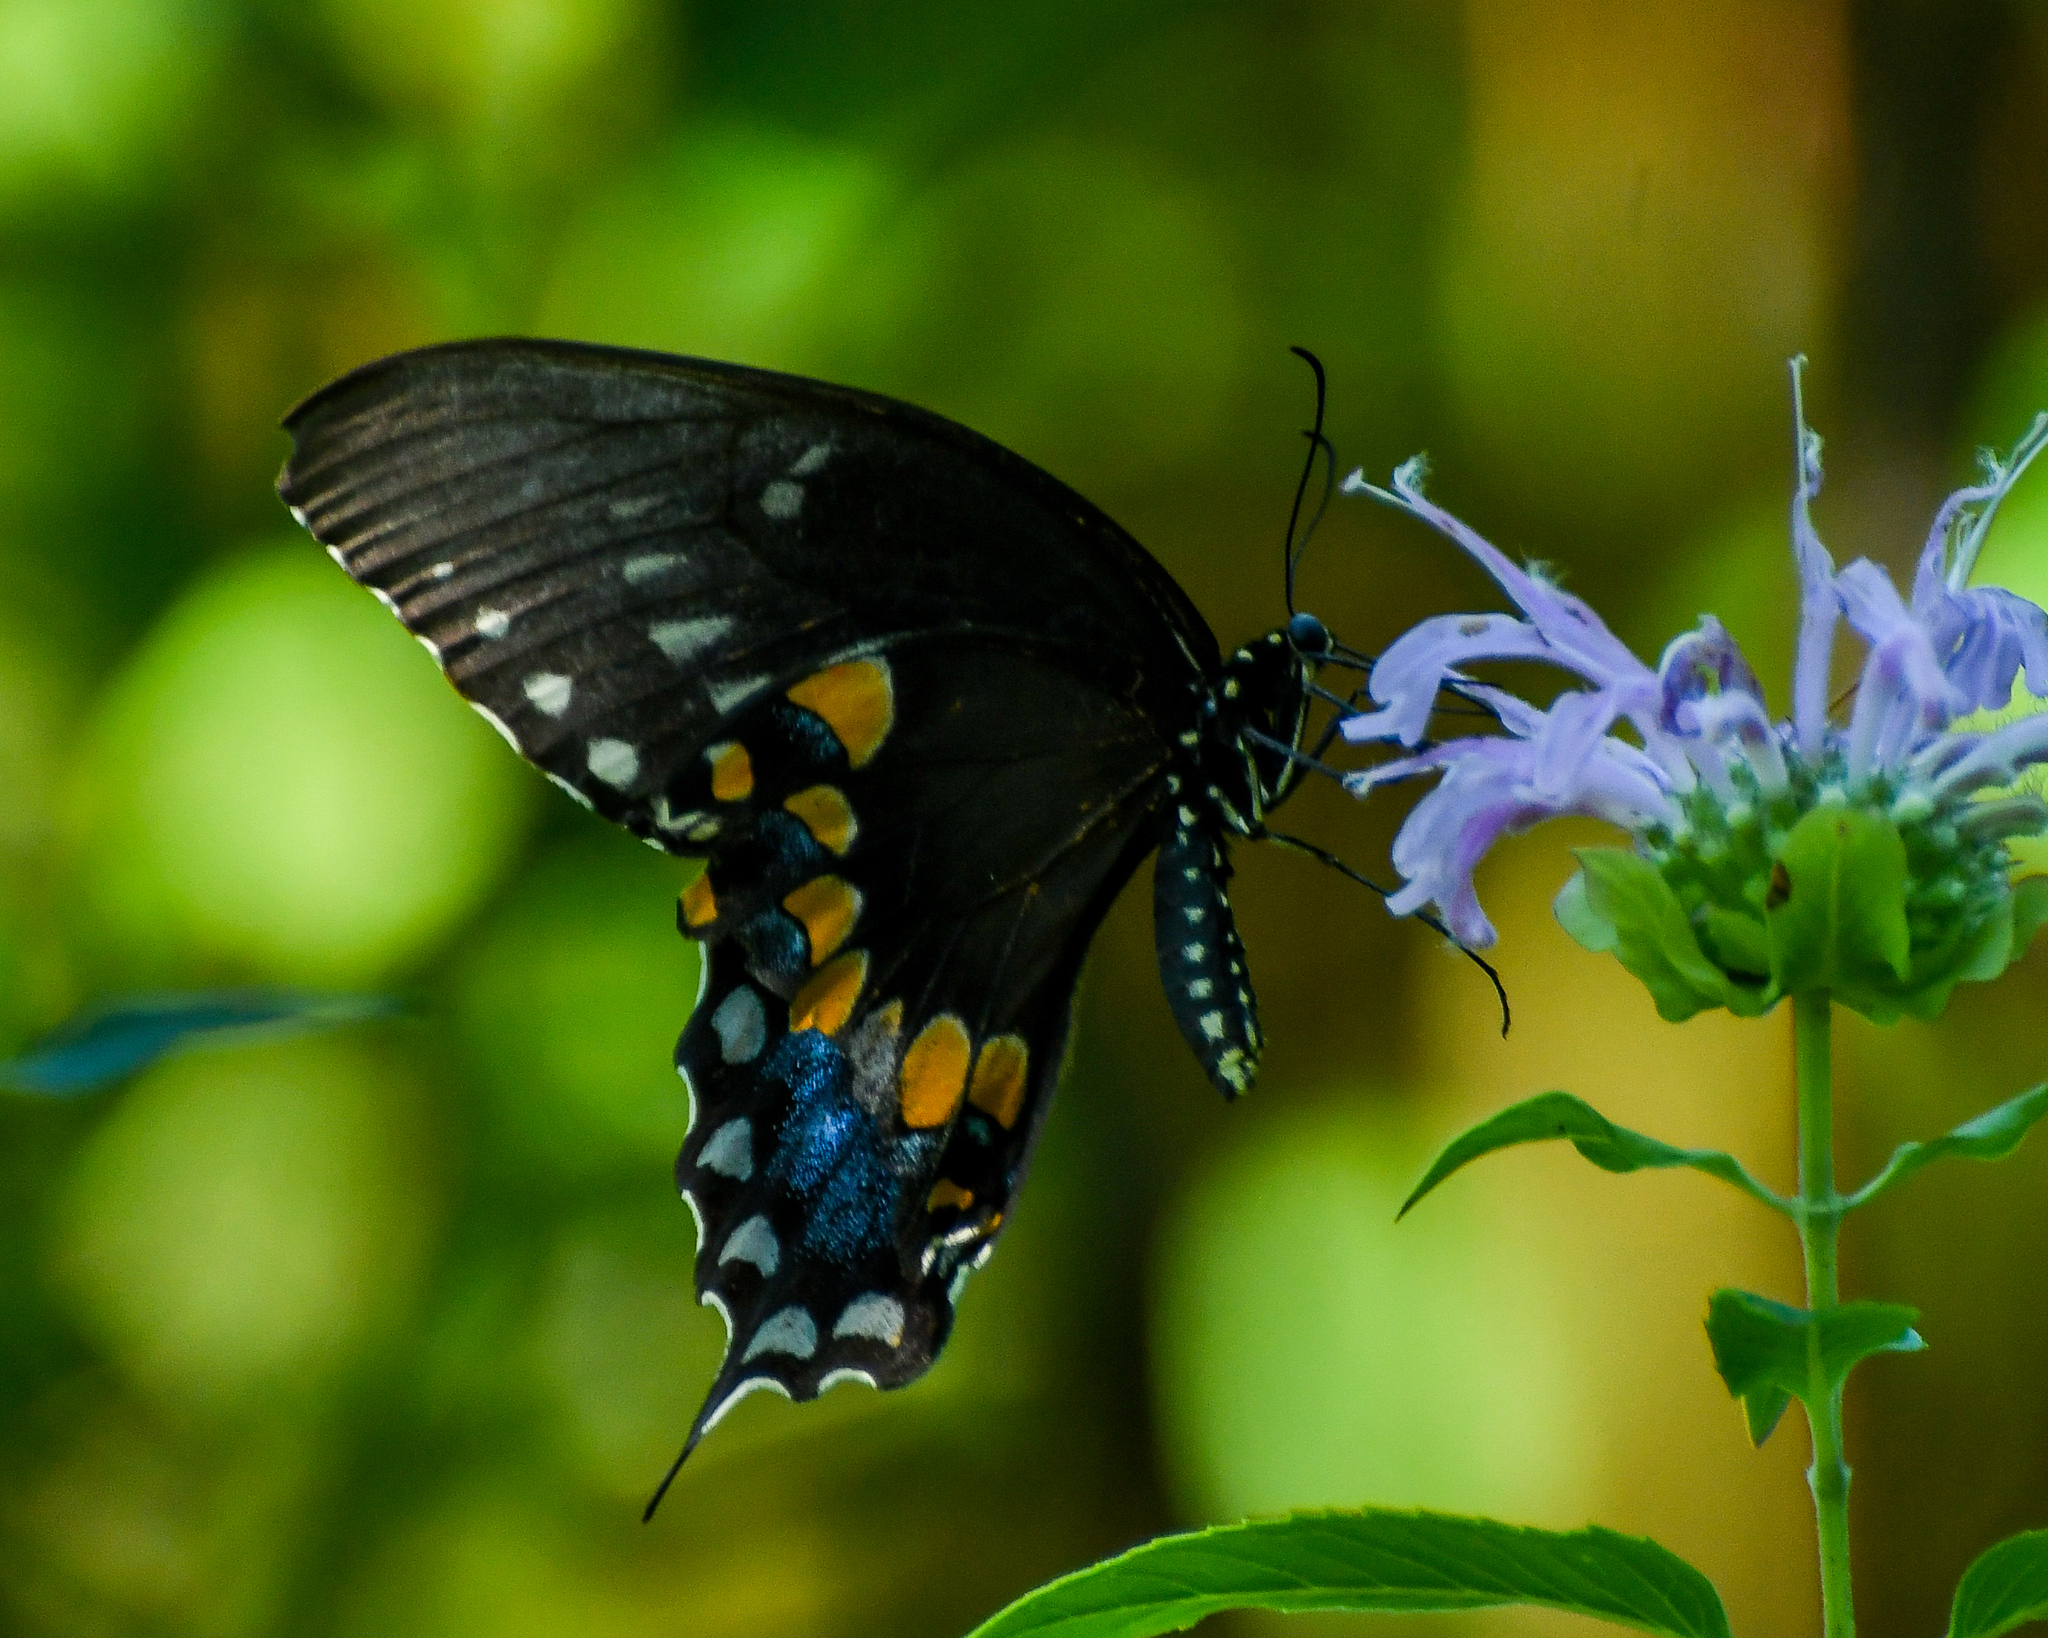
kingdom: Animalia
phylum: Arthropoda
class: Insecta
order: Lepidoptera
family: Papilionidae
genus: Papilio
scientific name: Papilio troilus
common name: Spicebush swallowtail
